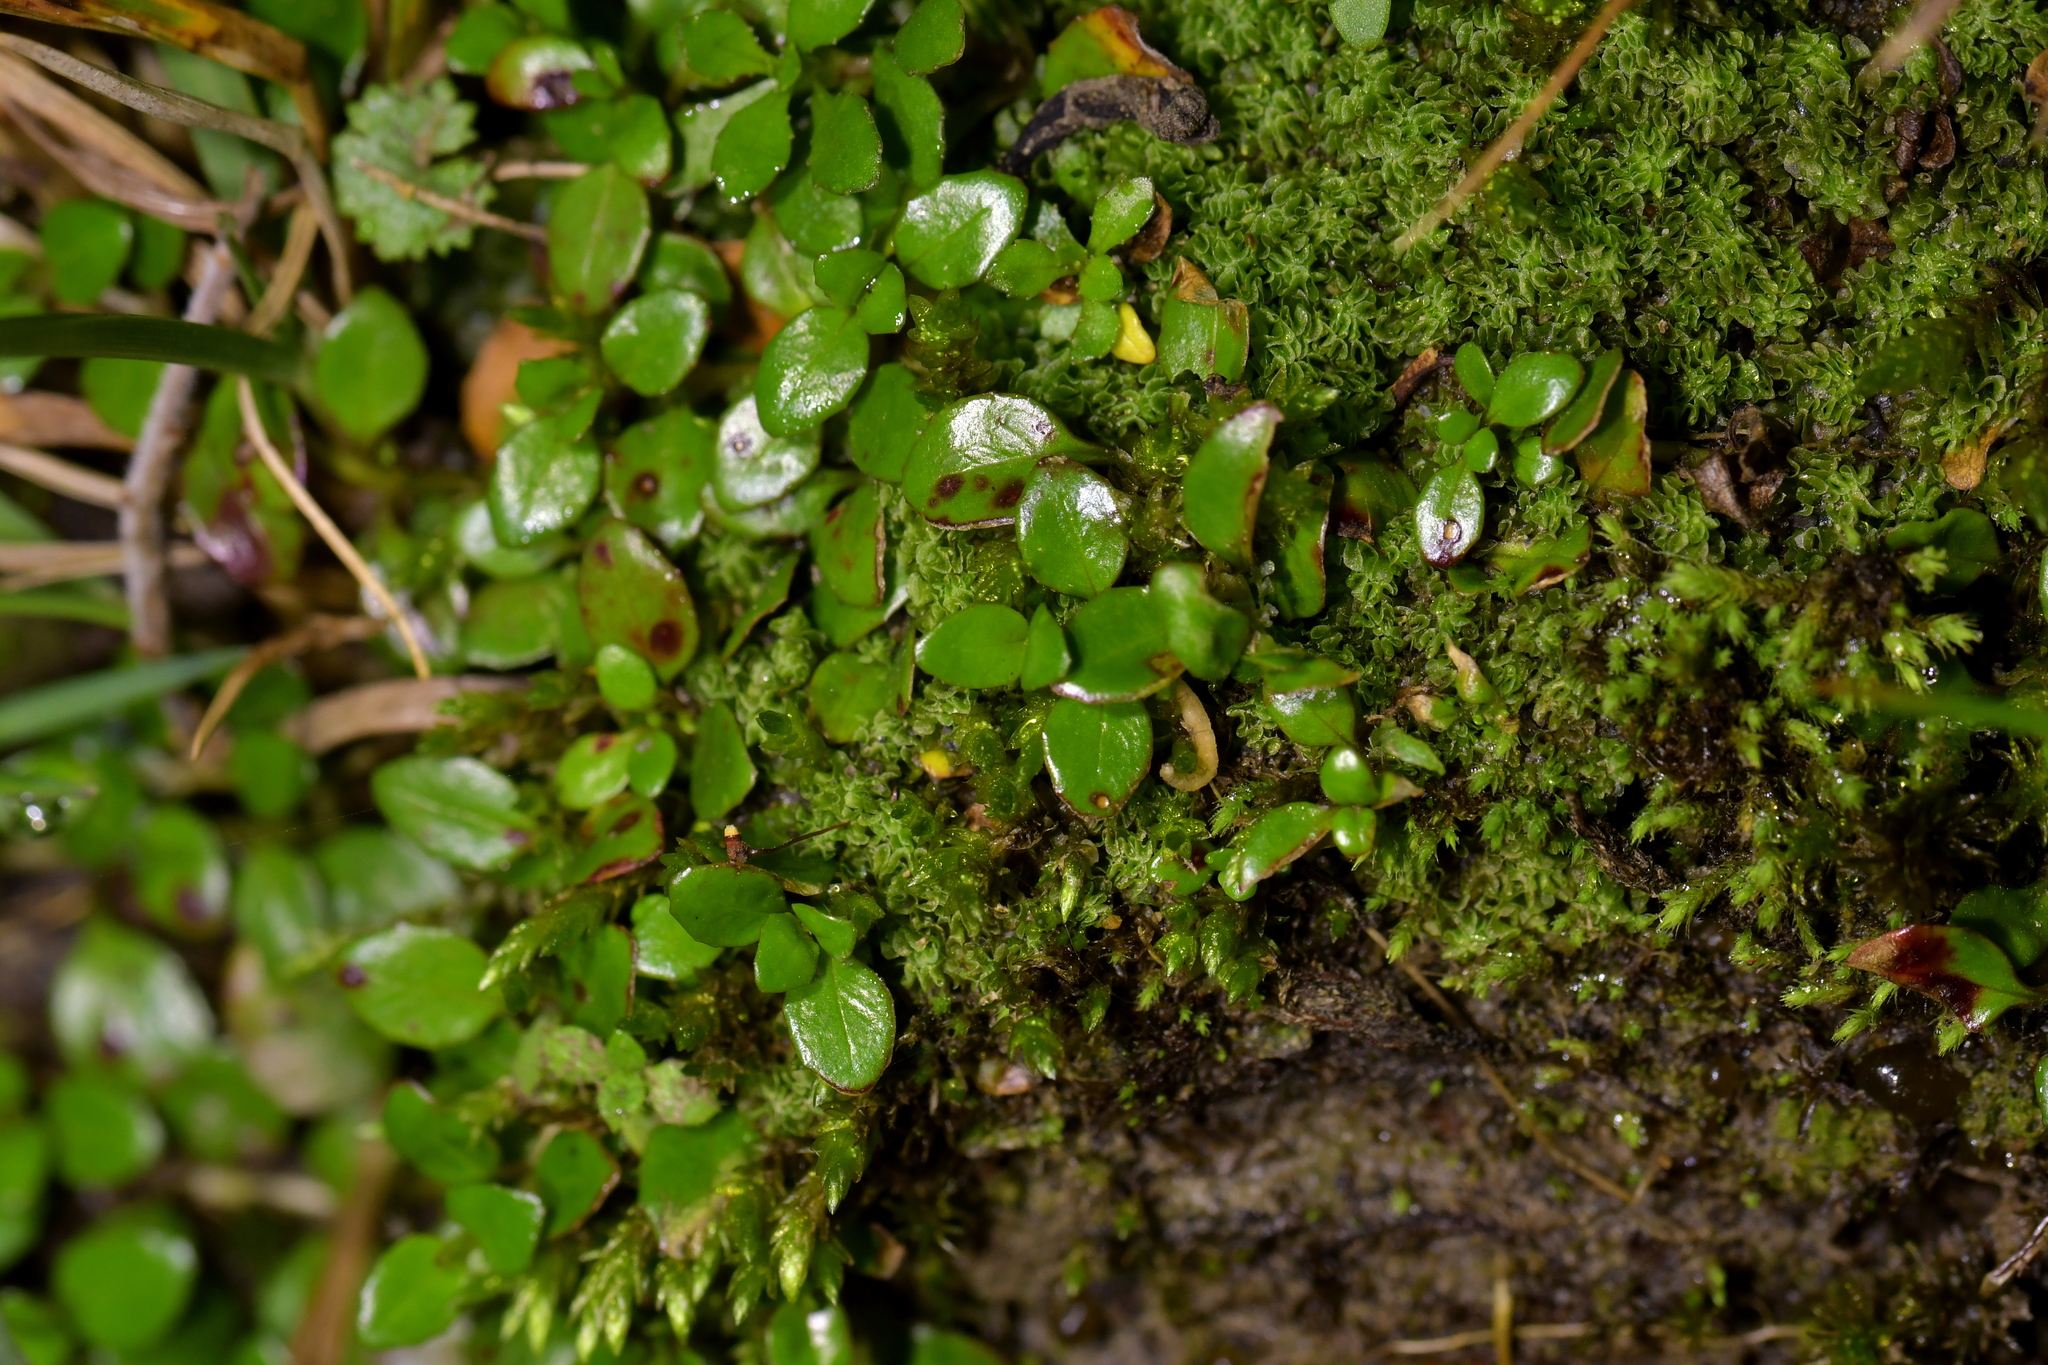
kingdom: Plantae
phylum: Tracheophyta
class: Magnoliopsida
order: Myrtales
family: Onagraceae
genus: Epilobium
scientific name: Epilobium brunnescens
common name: New zealand willowherb
